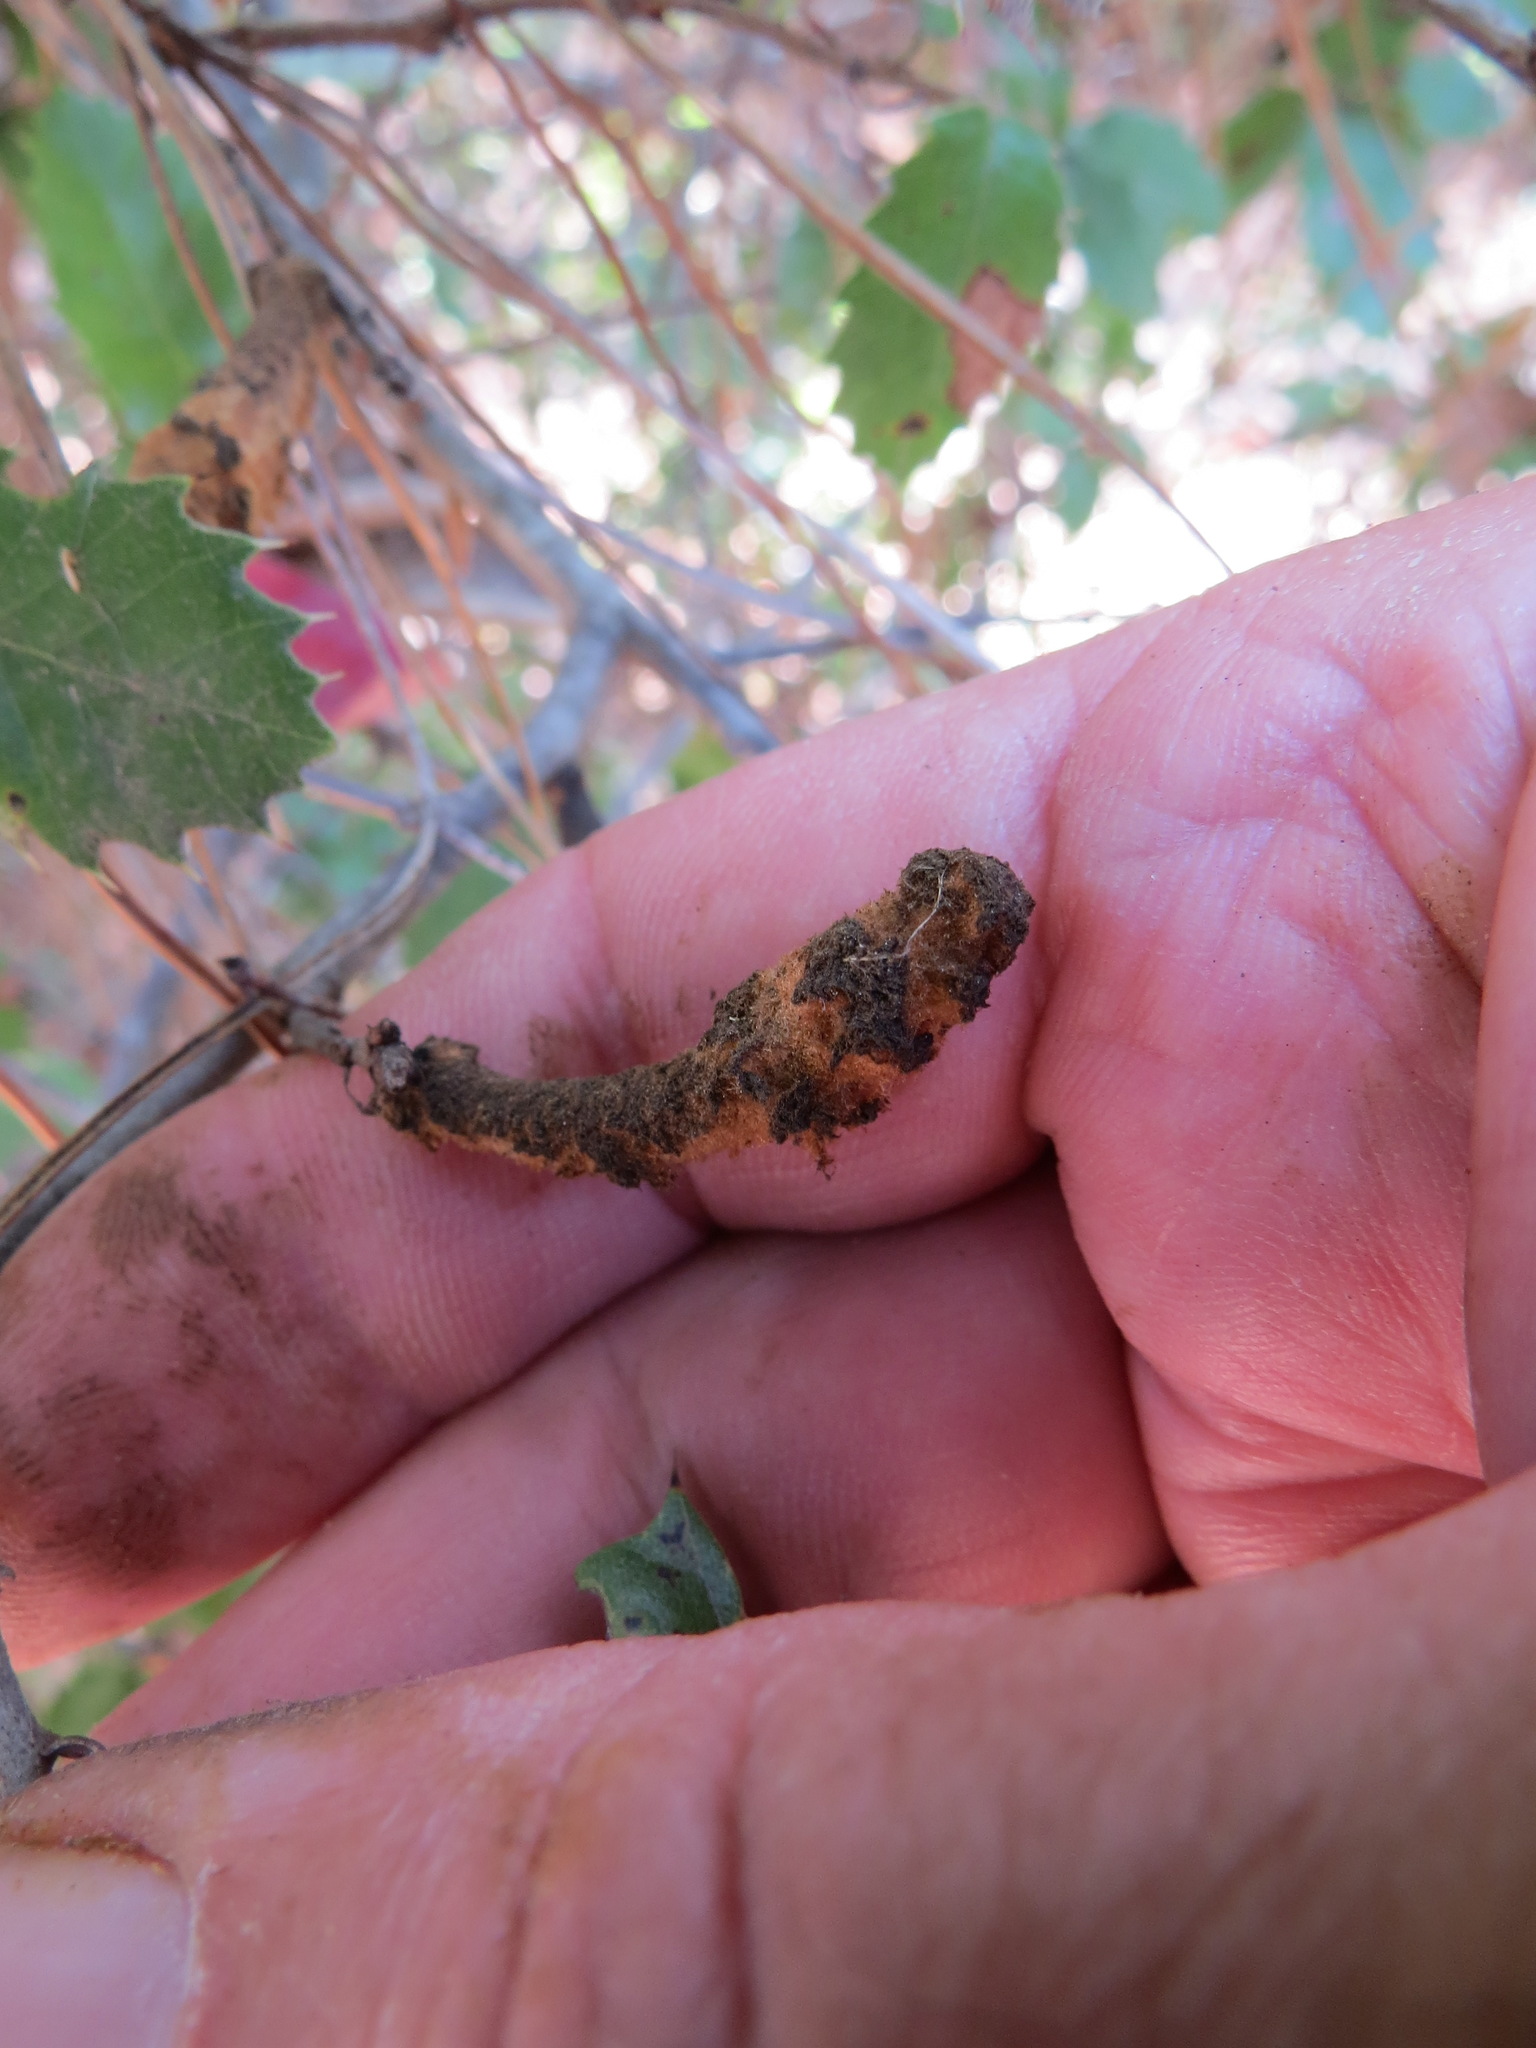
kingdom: Animalia
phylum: Arthropoda
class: Insecta
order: Hymenoptera
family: Cynipidae
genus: Heteroecus
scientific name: Heteroecus
